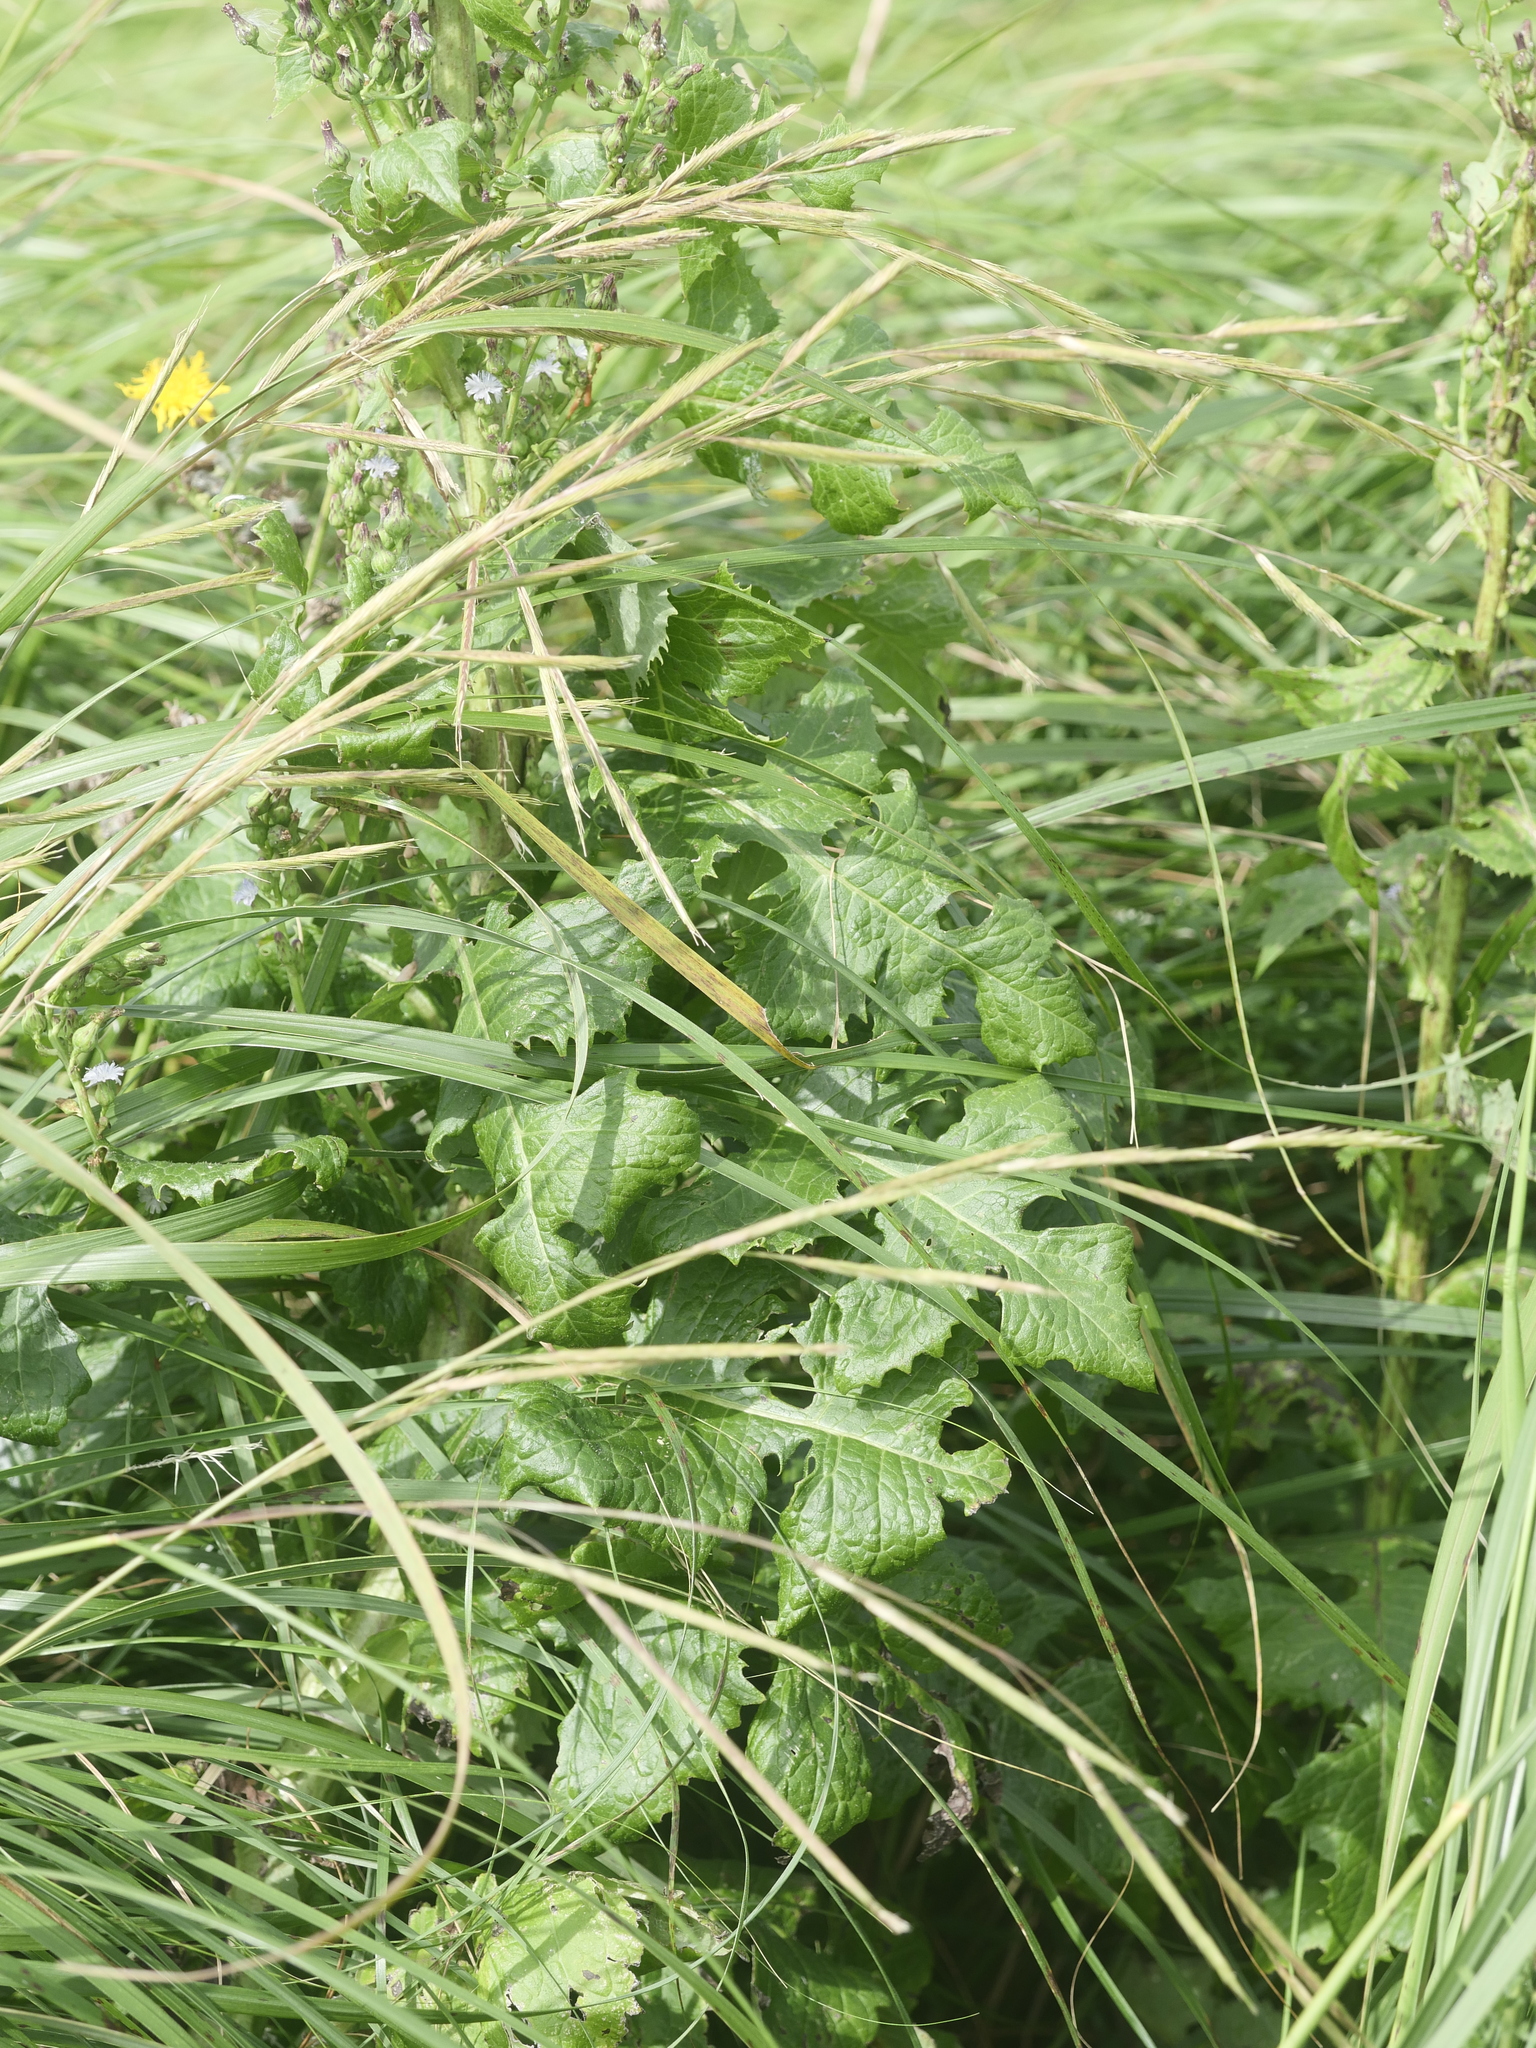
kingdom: Plantae
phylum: Tracheophyta
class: Magnoliopsida
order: Asterales
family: Asteraceae
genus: Lactuca
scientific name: Lactuca biennis
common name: Blue wood lettuce
